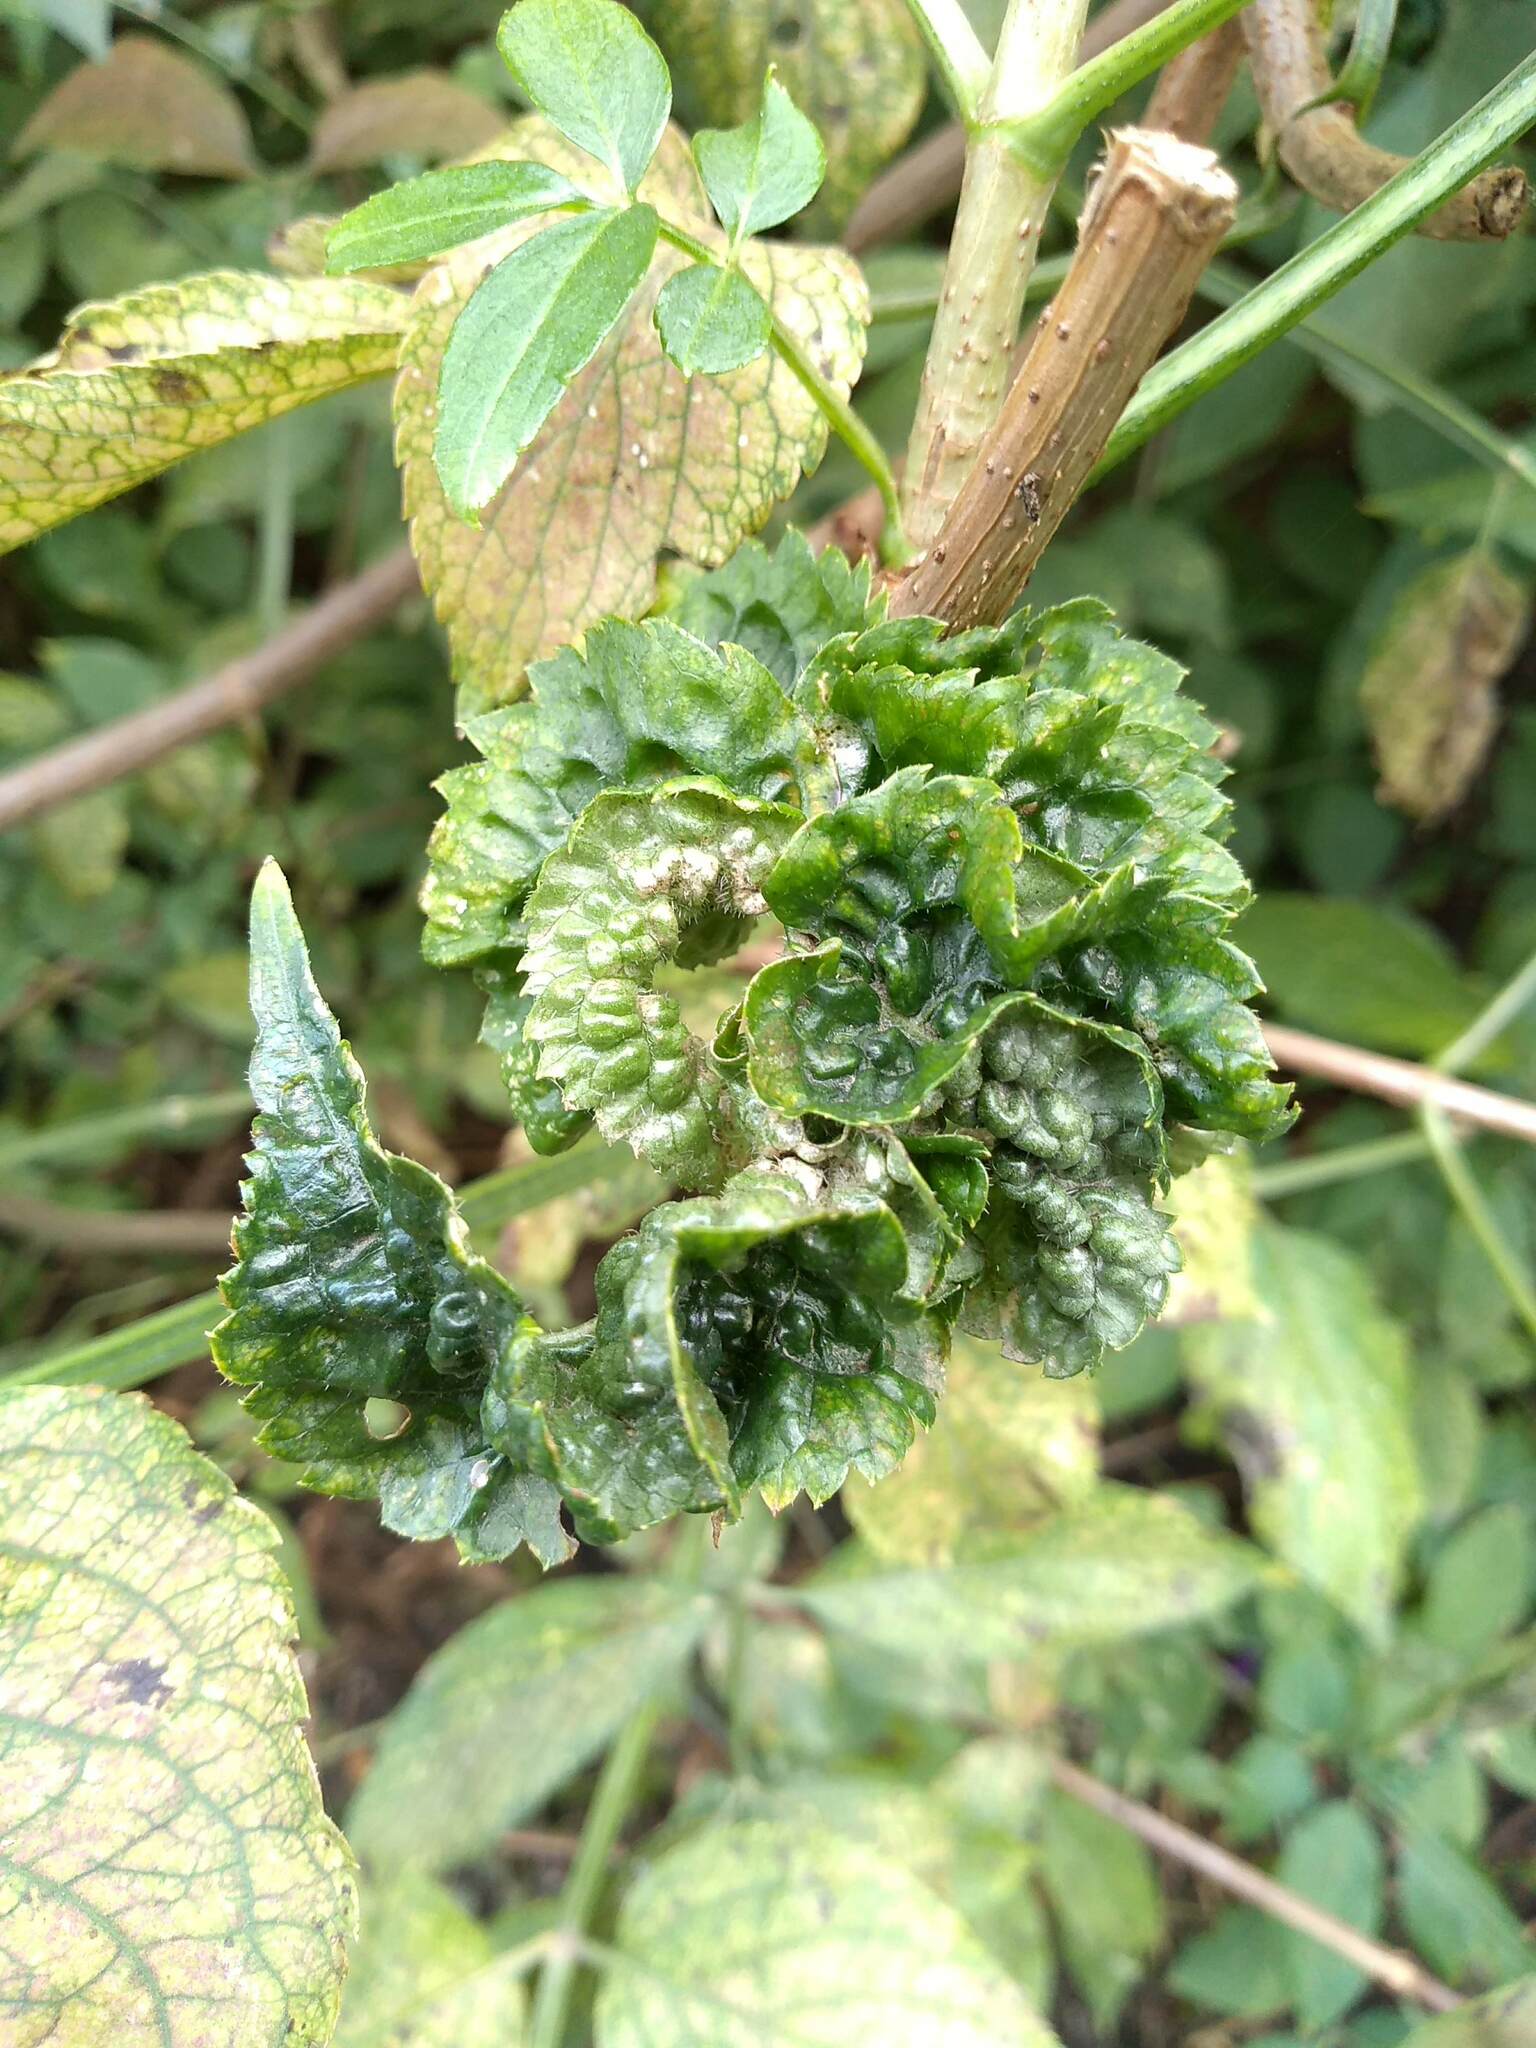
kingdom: Animalia
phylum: Arthropoda
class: Arachnida
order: Trombidiformes
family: Eriophyidae
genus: Epitrimerus
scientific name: Epitrimerus trilobus
